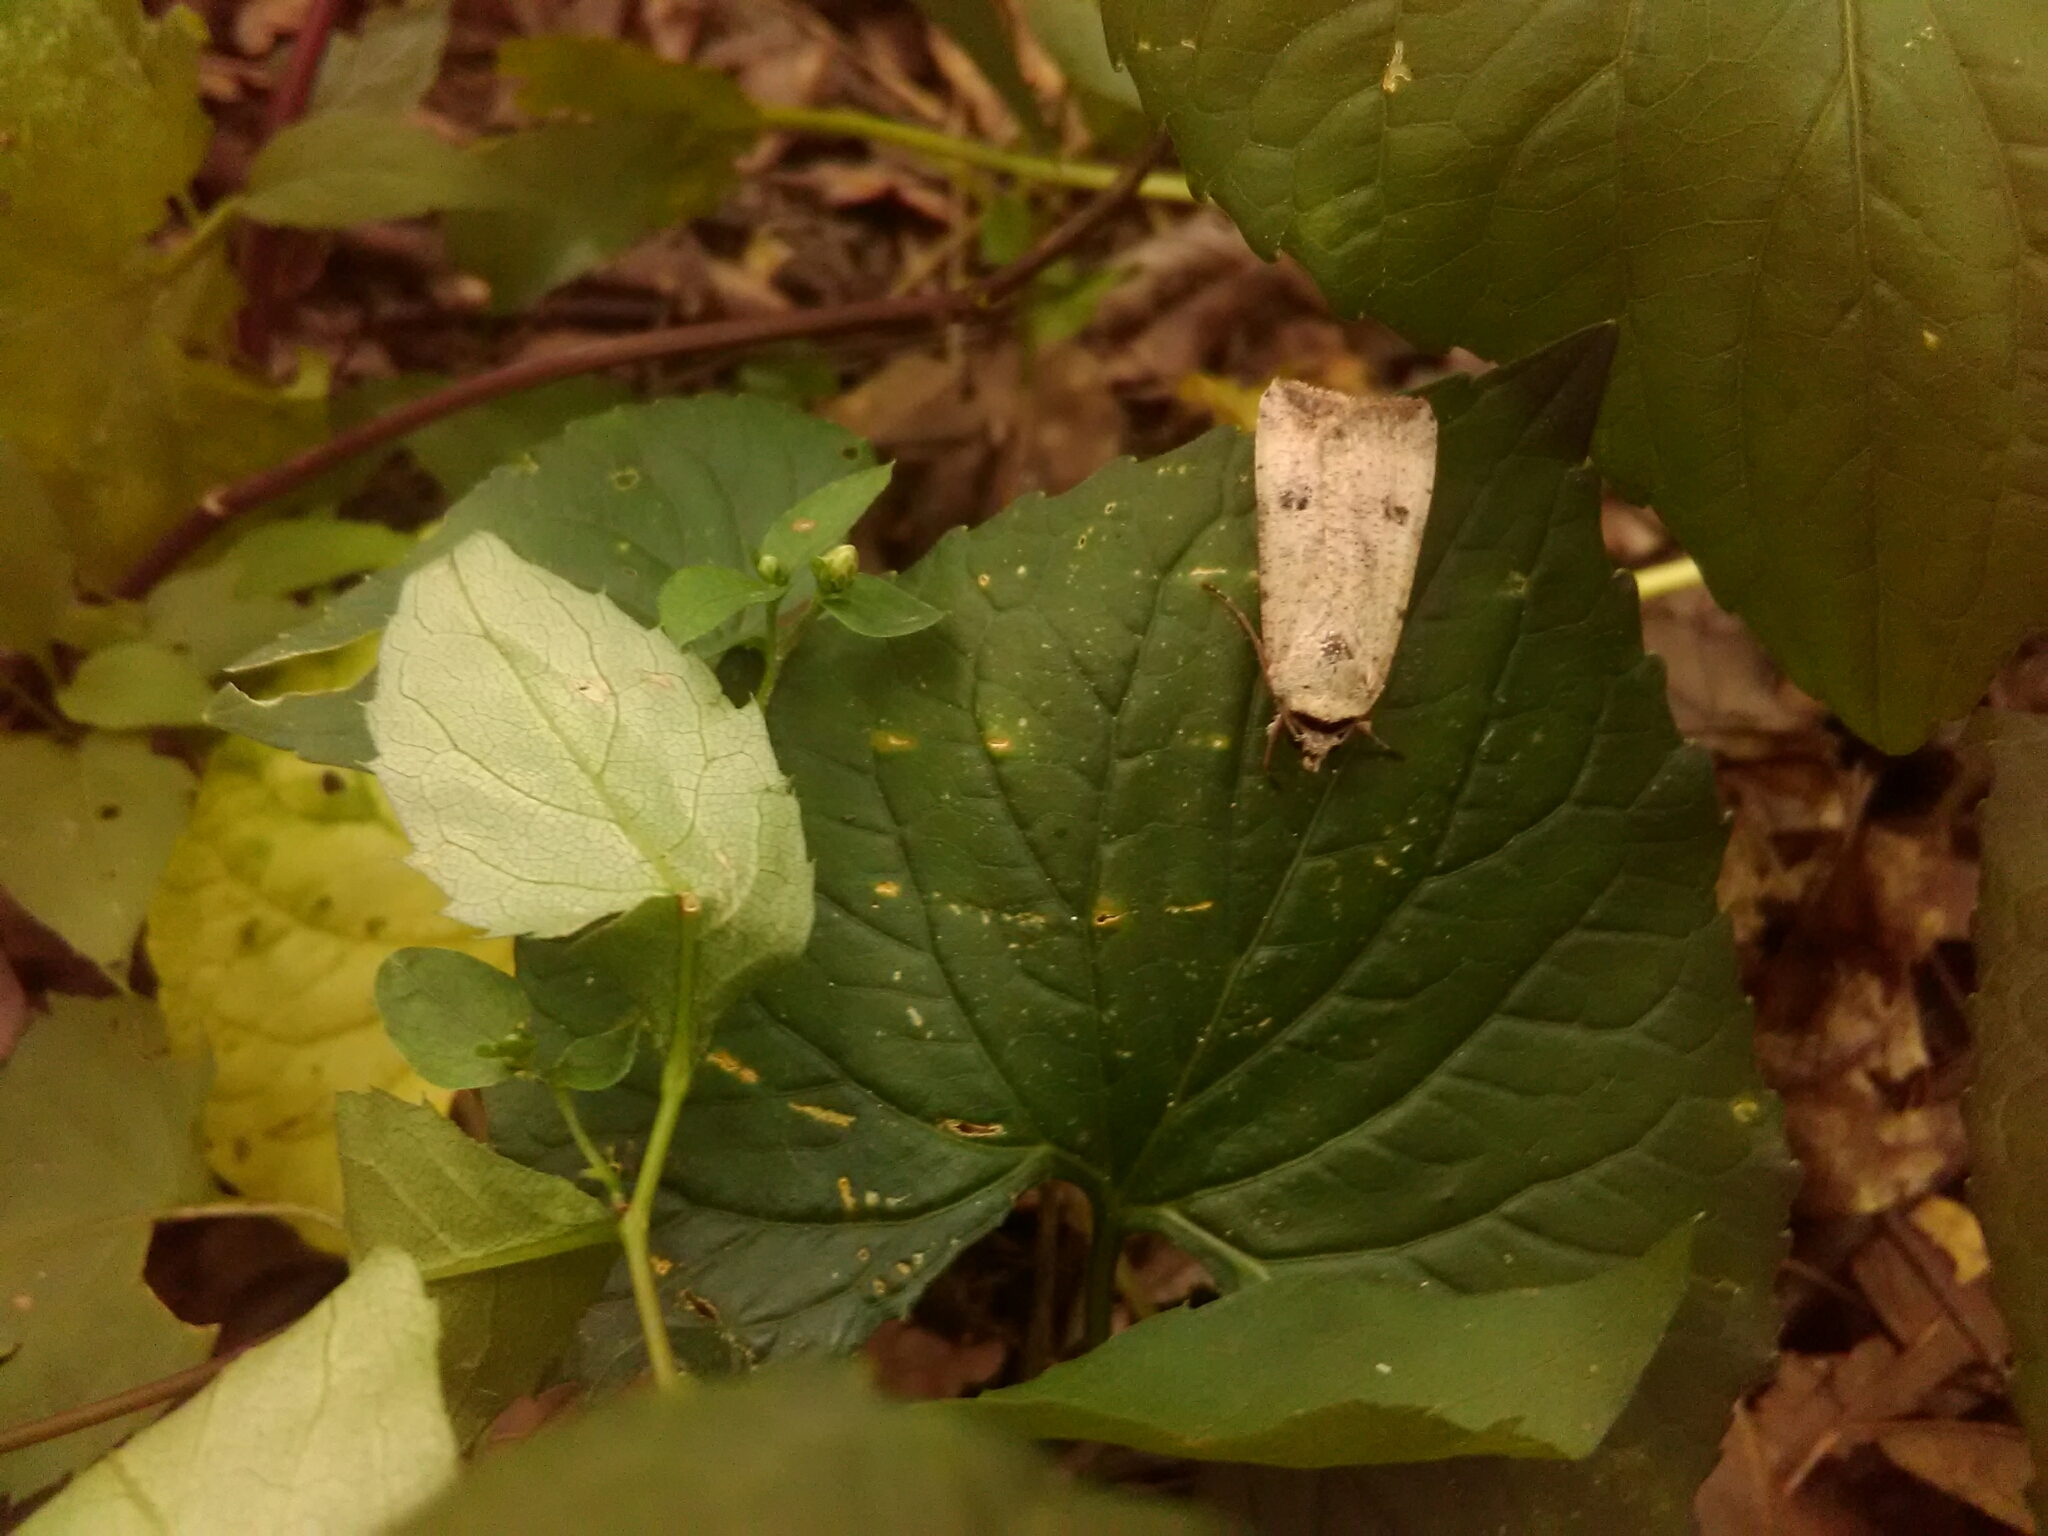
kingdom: Animalia
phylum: Arthropoda
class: Insecta
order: Lepidoptera
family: Noctuidae
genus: Anicla
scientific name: Anicla infecta
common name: Green cutworm
